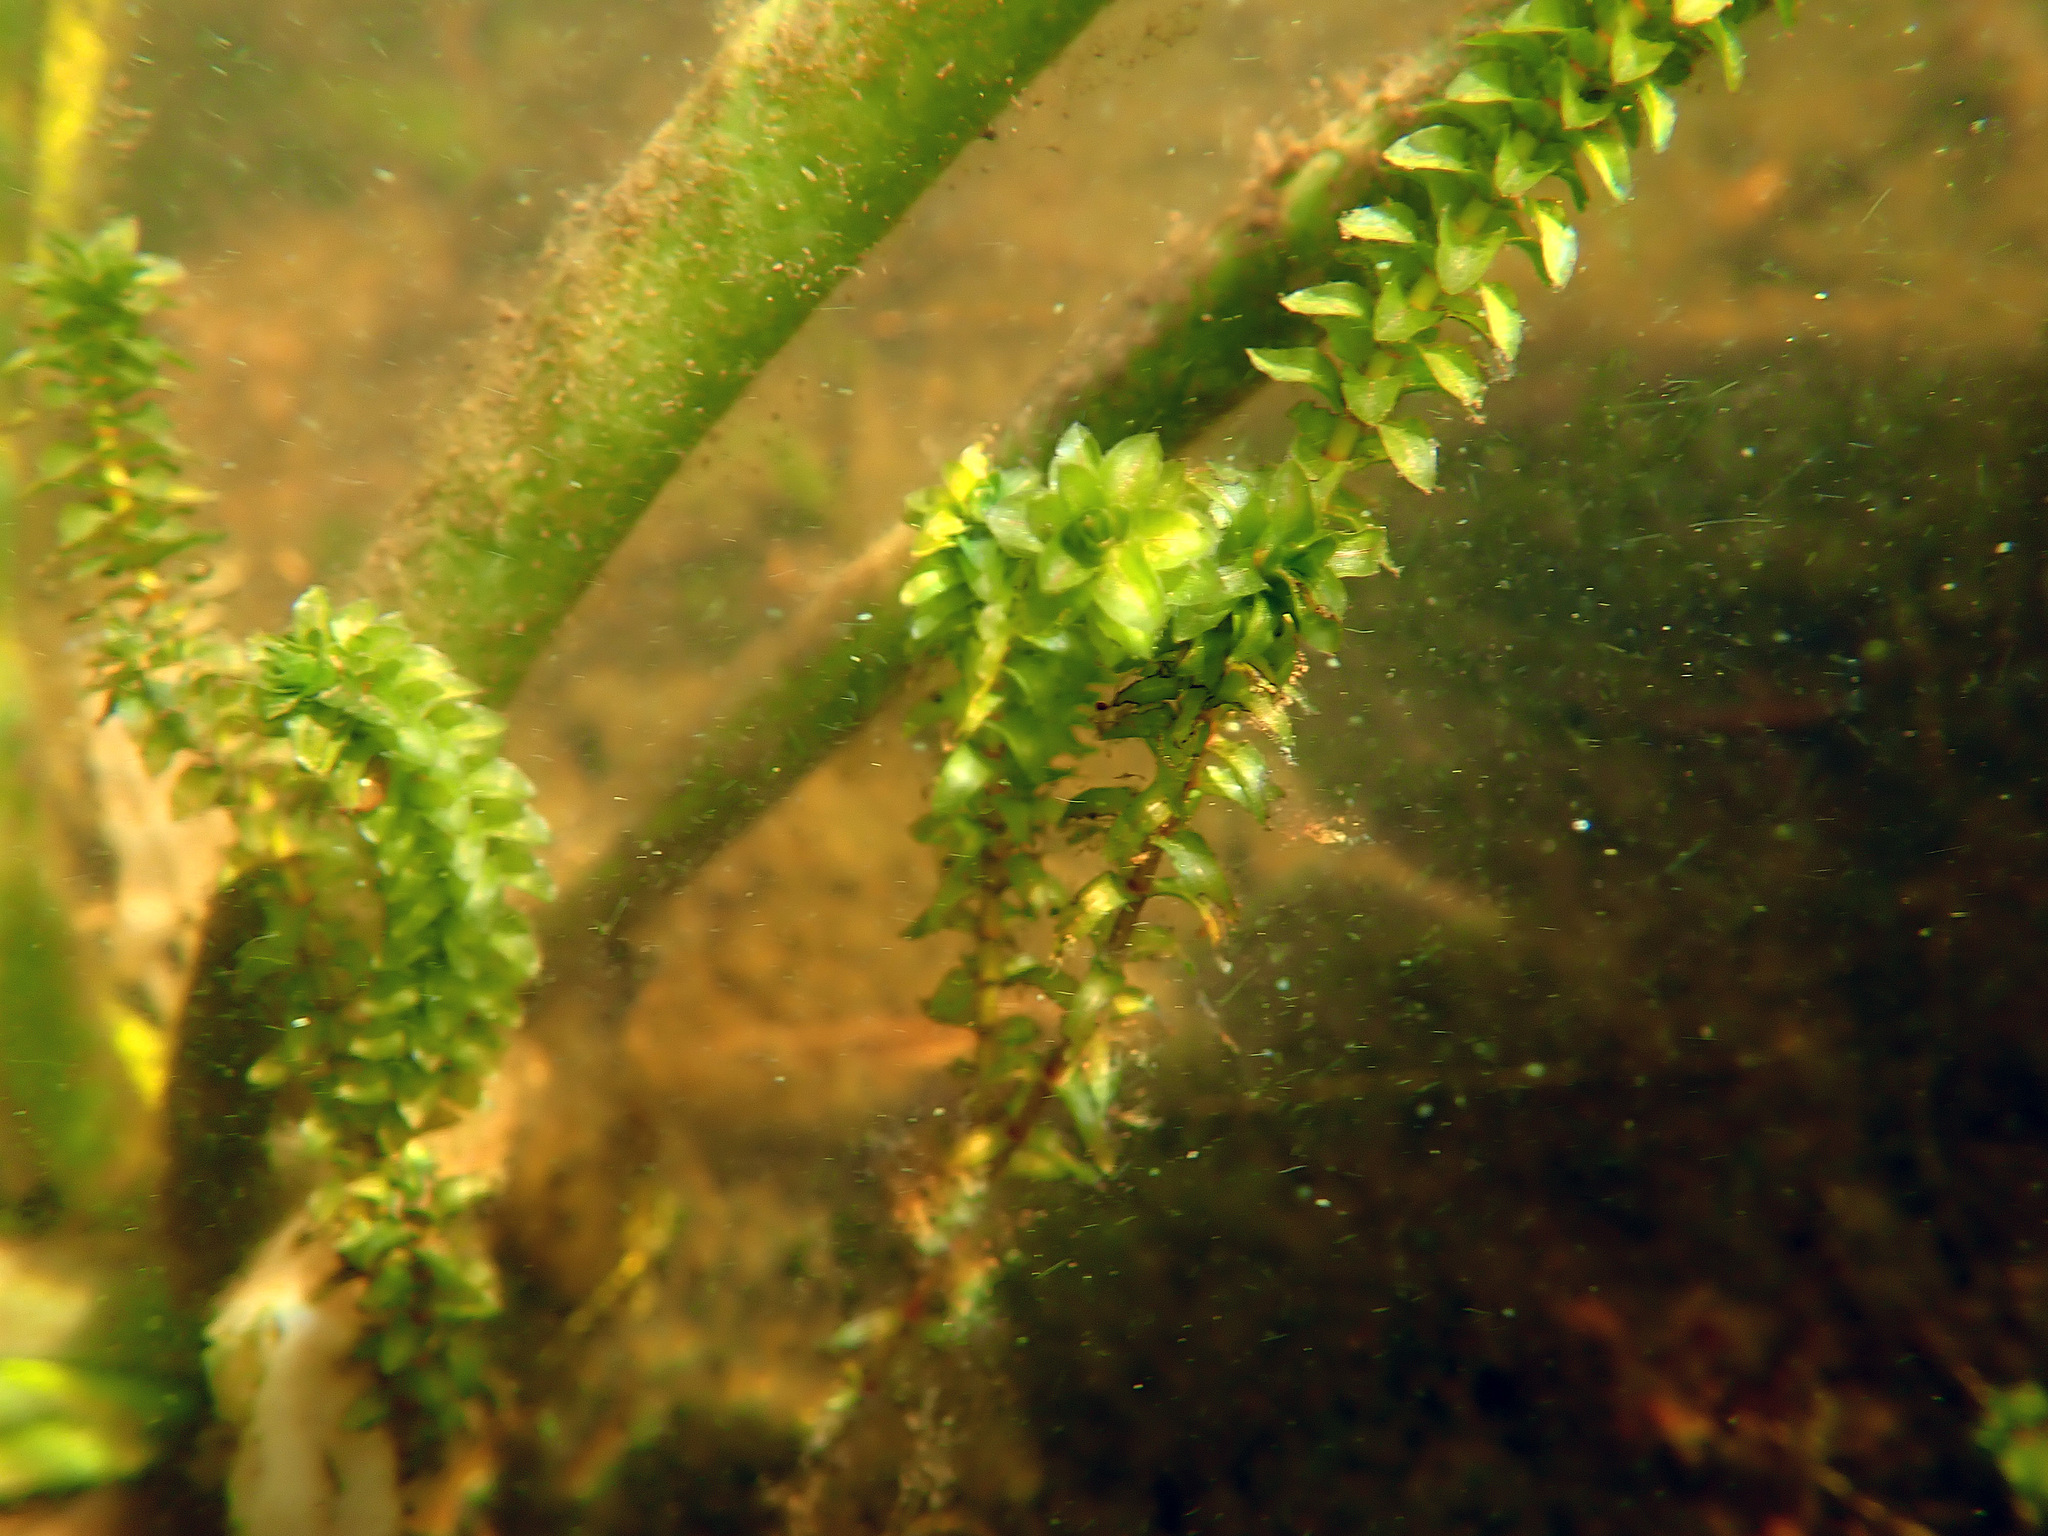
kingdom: Plantae
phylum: Tracheophyta
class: Liliopsida
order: Alismatales
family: Hydrocharitaceae
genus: Elodea
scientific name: Elodea canadensis
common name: Canadian waterweed
